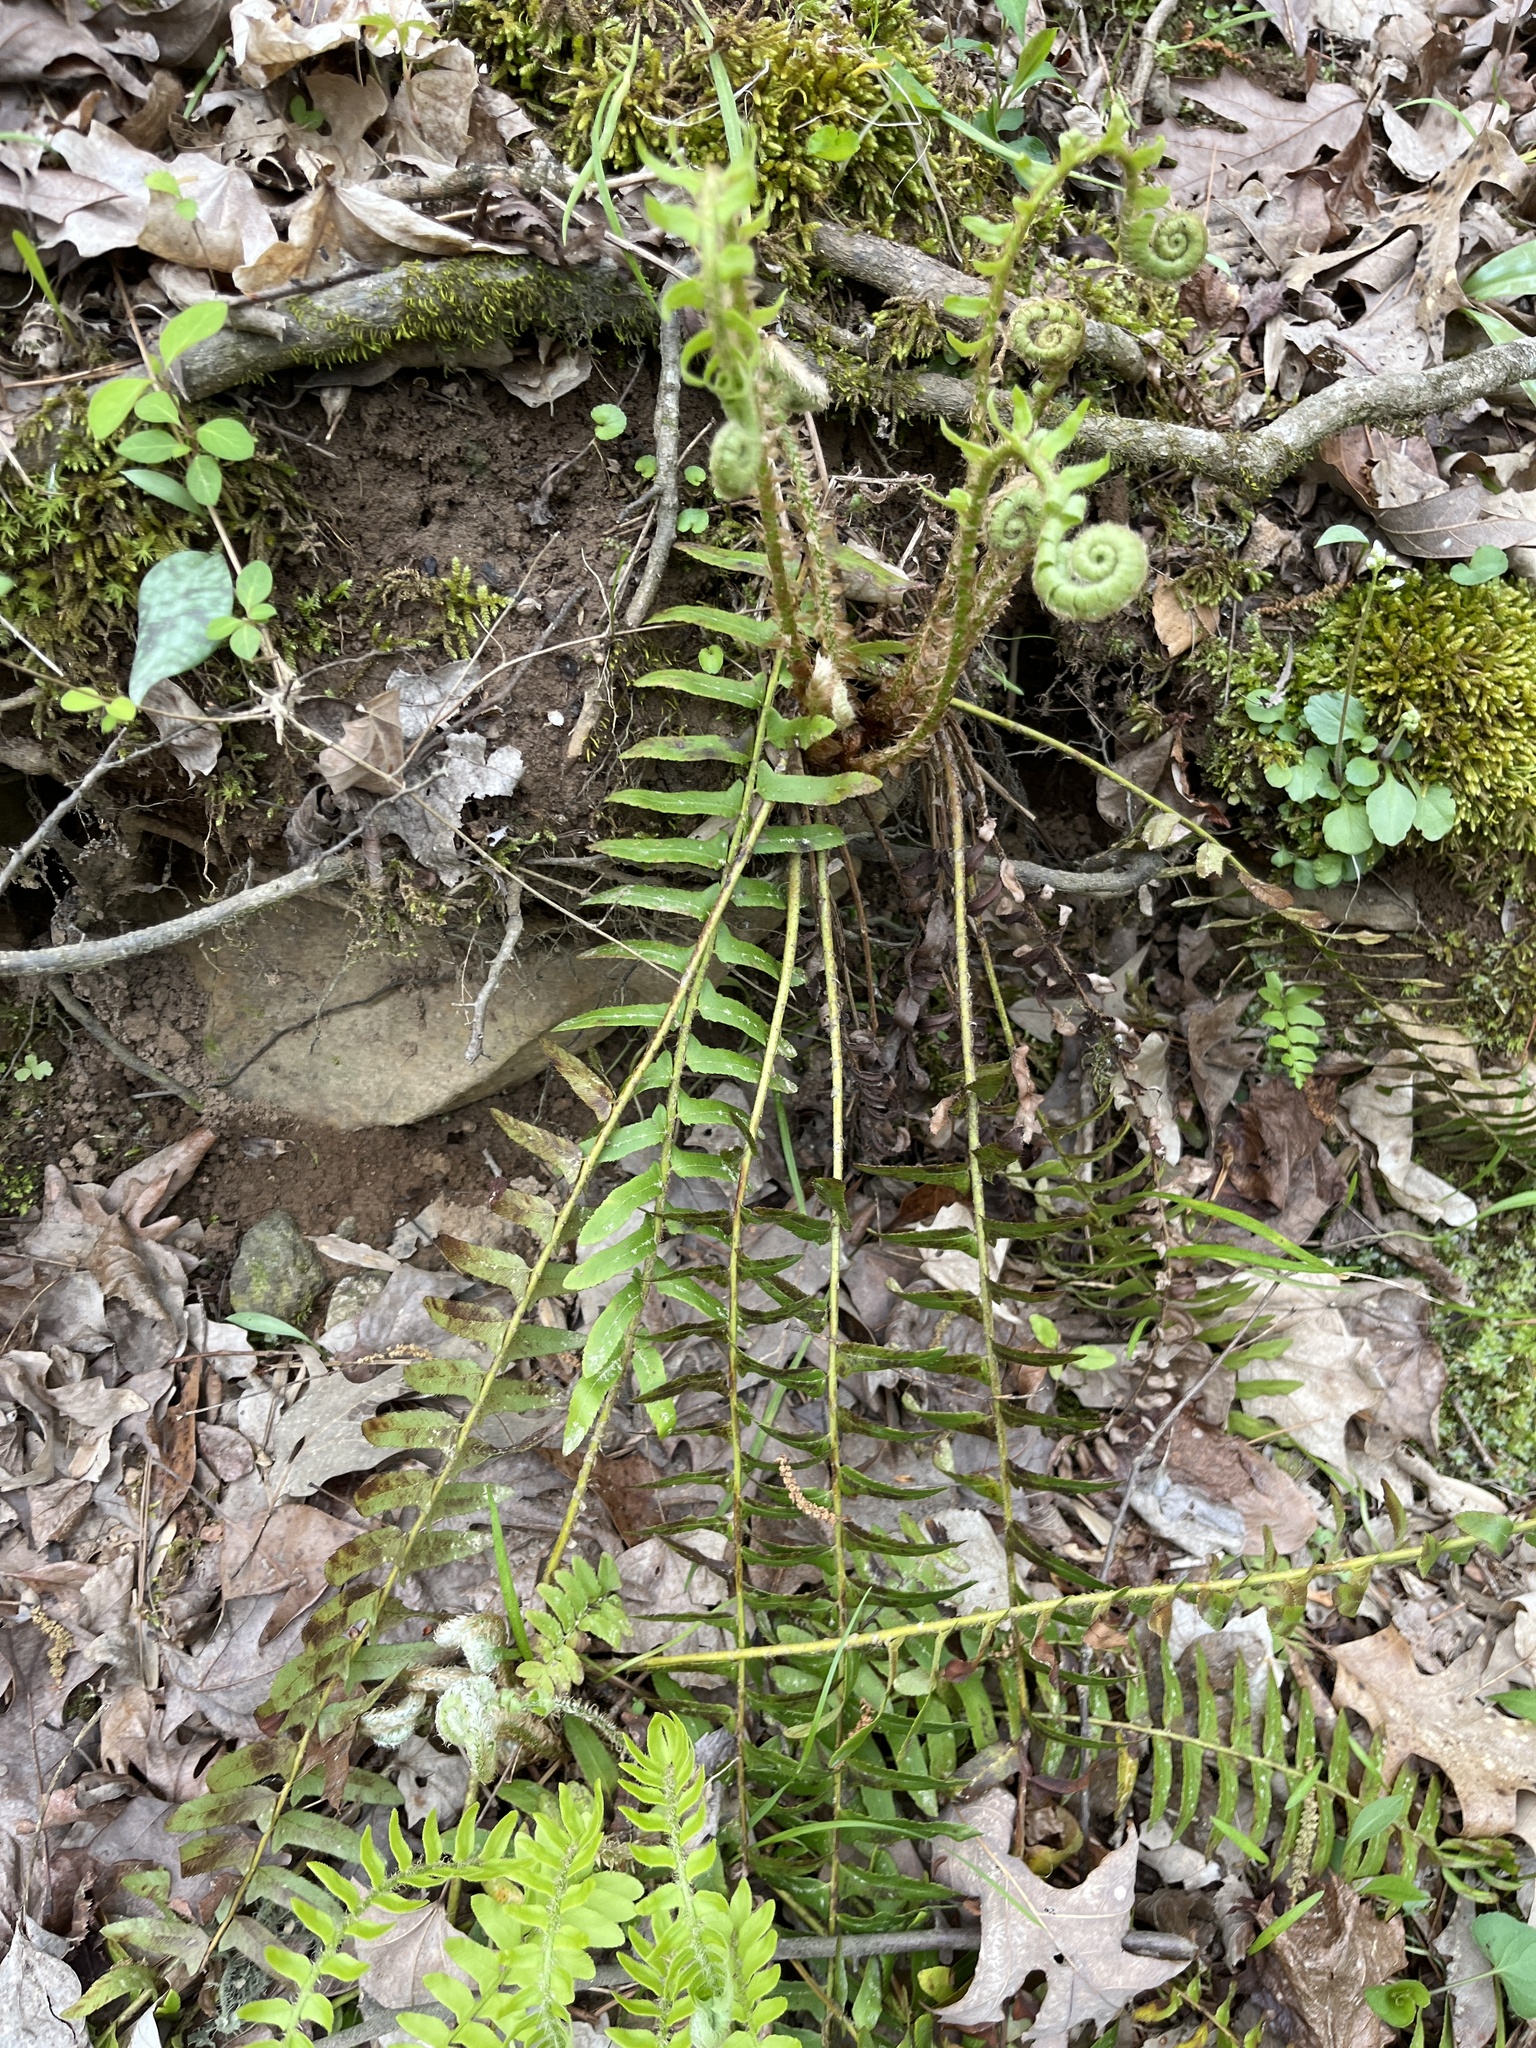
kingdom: Plantae
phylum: Tracheophyta
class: Polypodiopsida
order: Polypodiales
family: Dryopteridaceae
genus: Polystichum
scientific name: Polystichum acrostichoides
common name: Christmas fern
